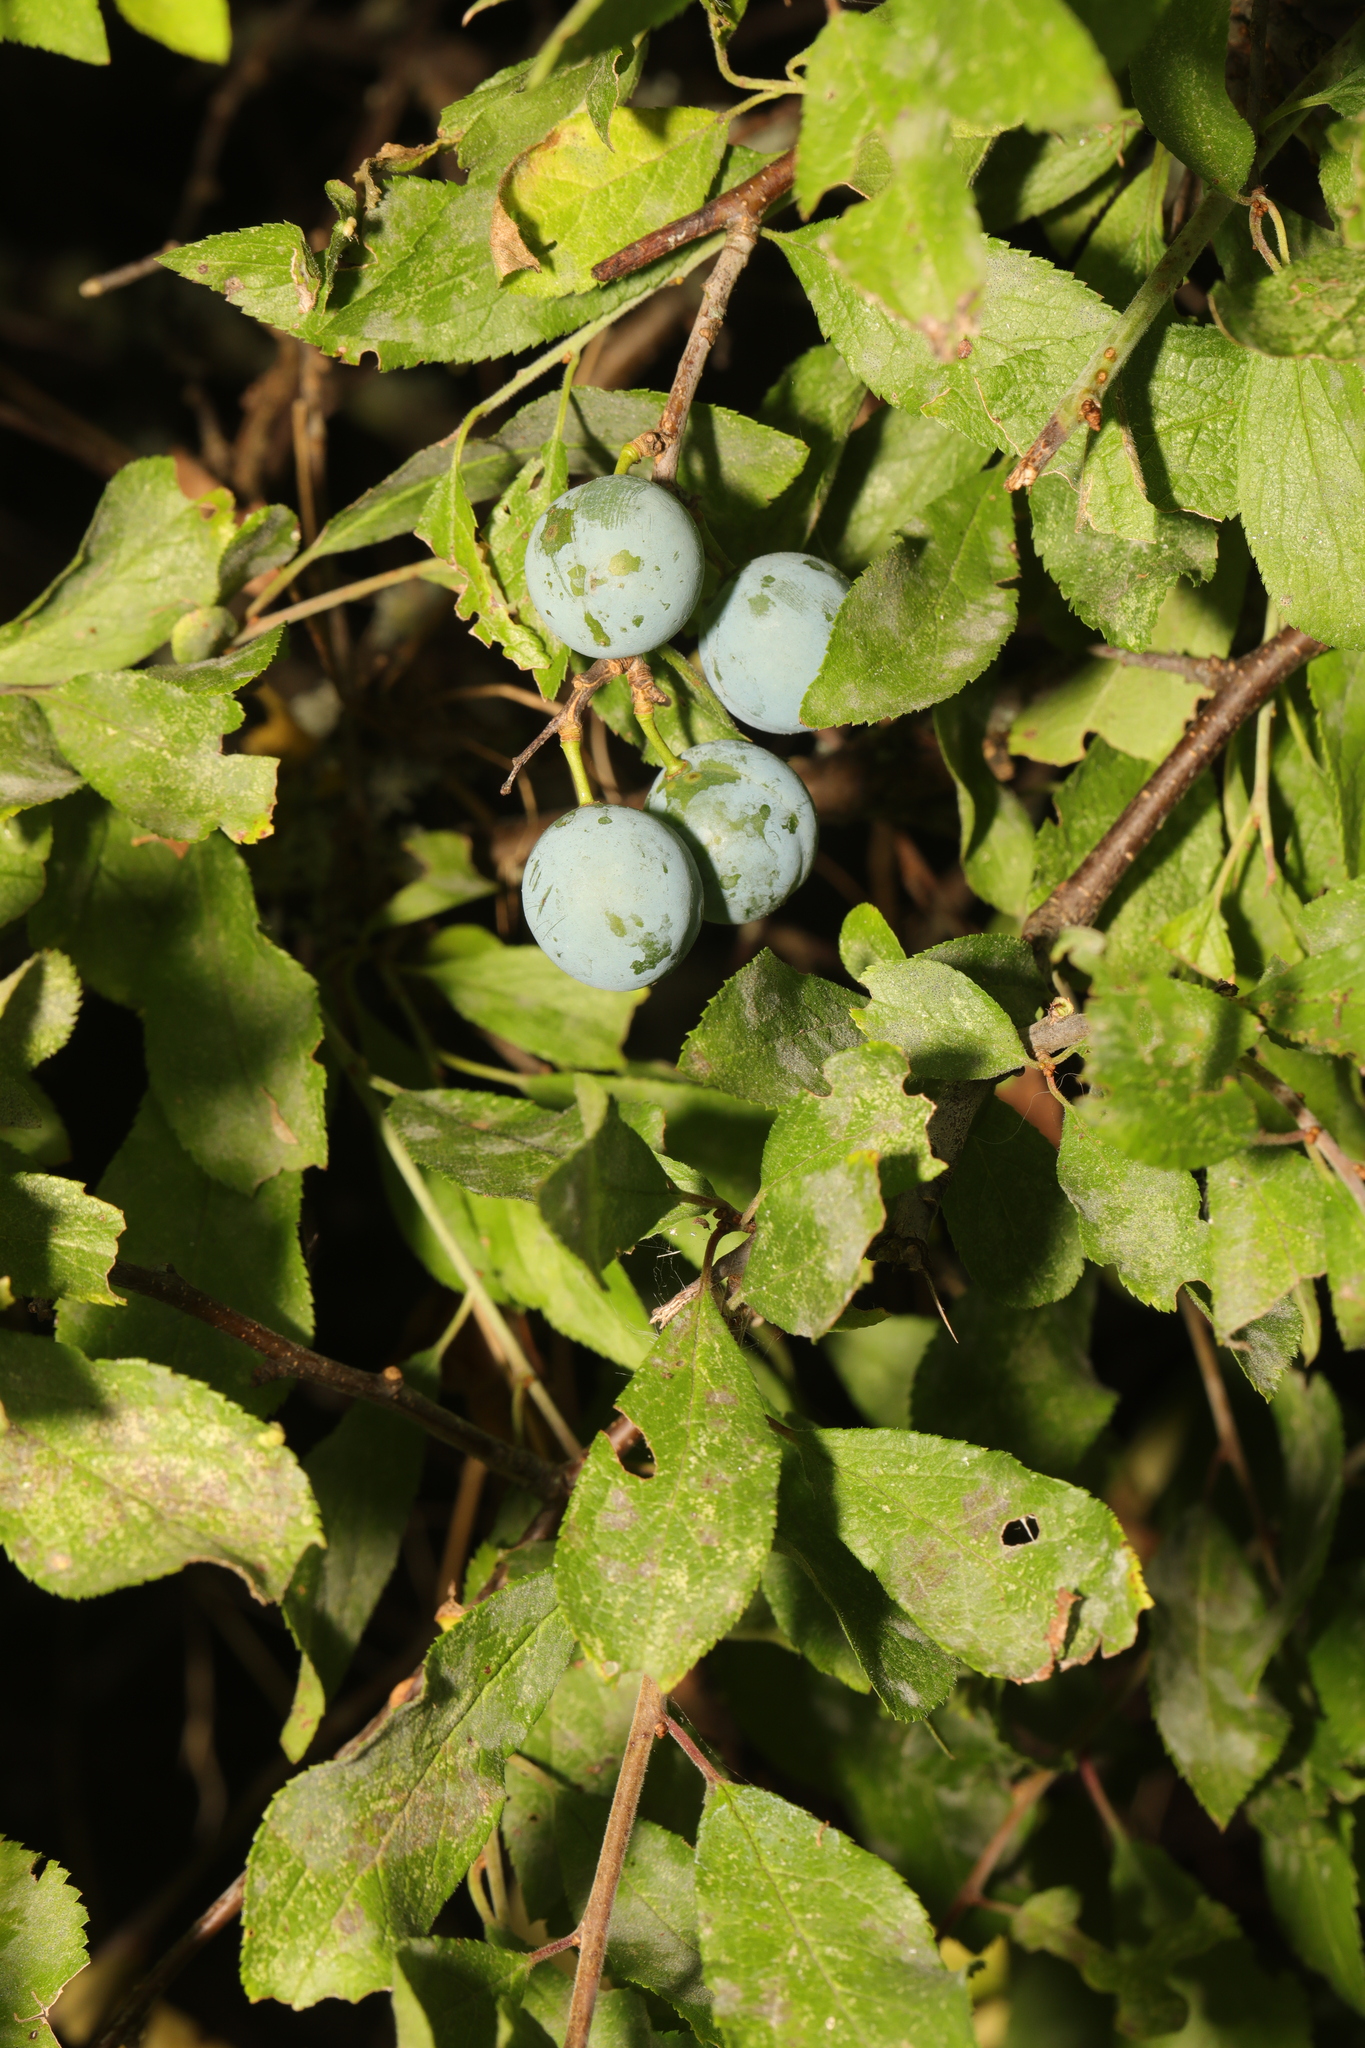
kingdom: Plantae
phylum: Tracheophyta
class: Magnoliopsida
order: Rosales
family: Rosaceae
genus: Prunus
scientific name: Prunus spinosa
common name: Blackthorn
